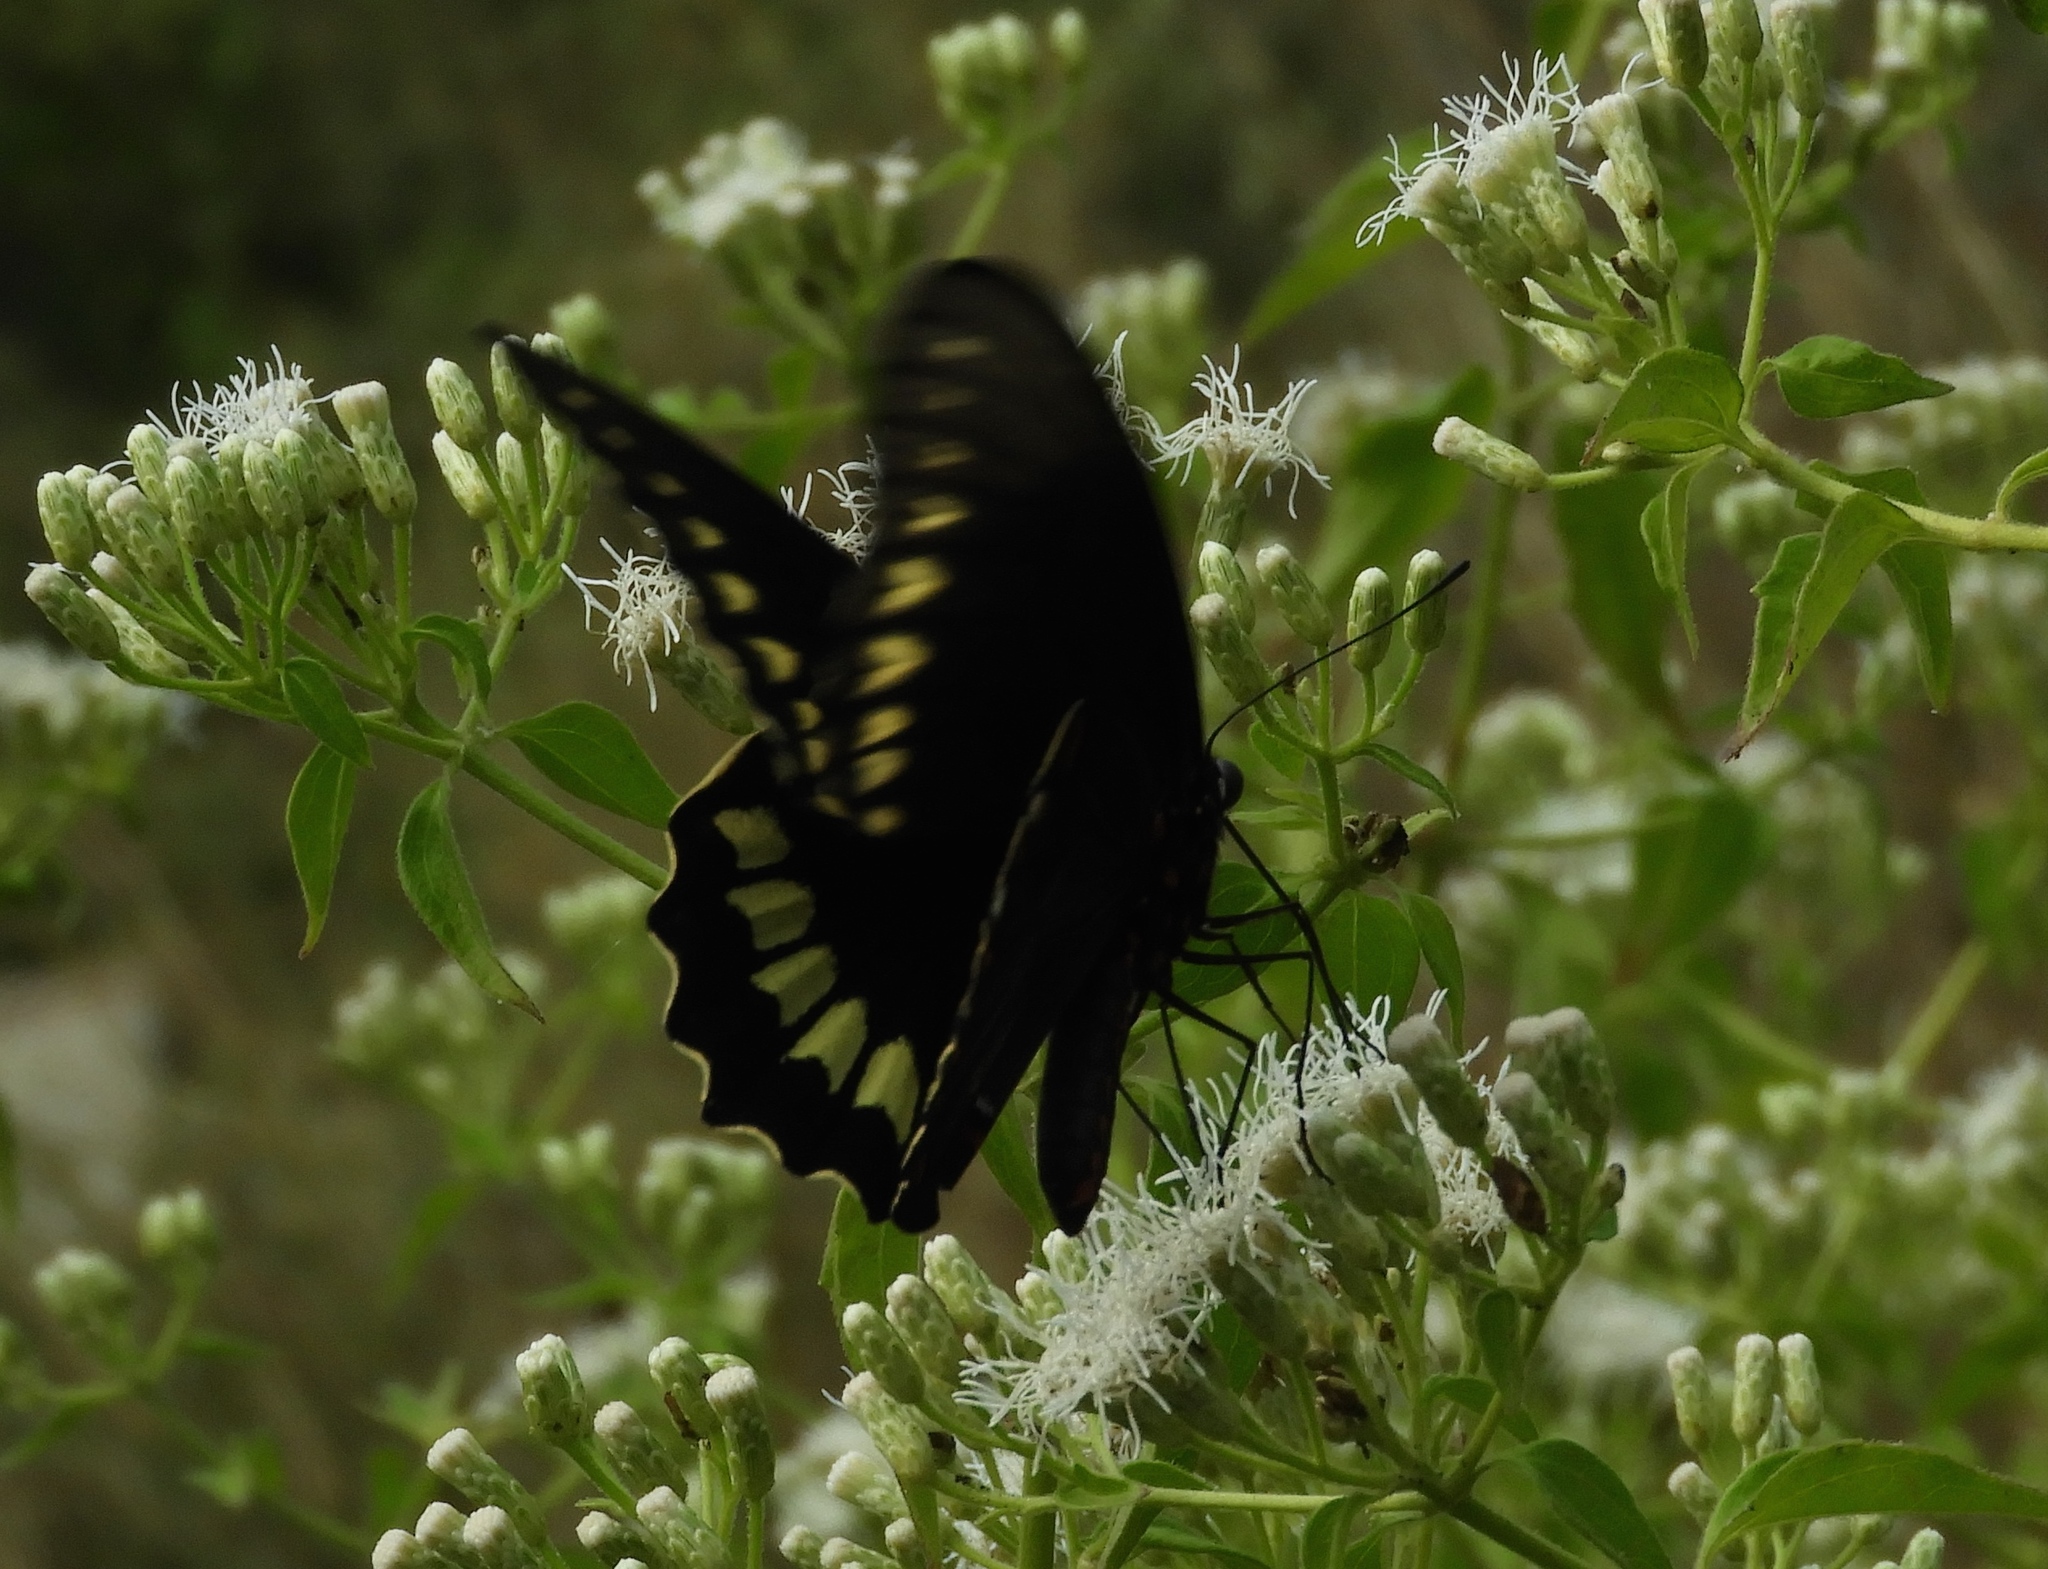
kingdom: Animalia
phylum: Arthropoda
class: Insecta
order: Lepidoptera
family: Papilionidae
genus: Battus
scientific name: Battus polydamas
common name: Polydamas swallowtail
